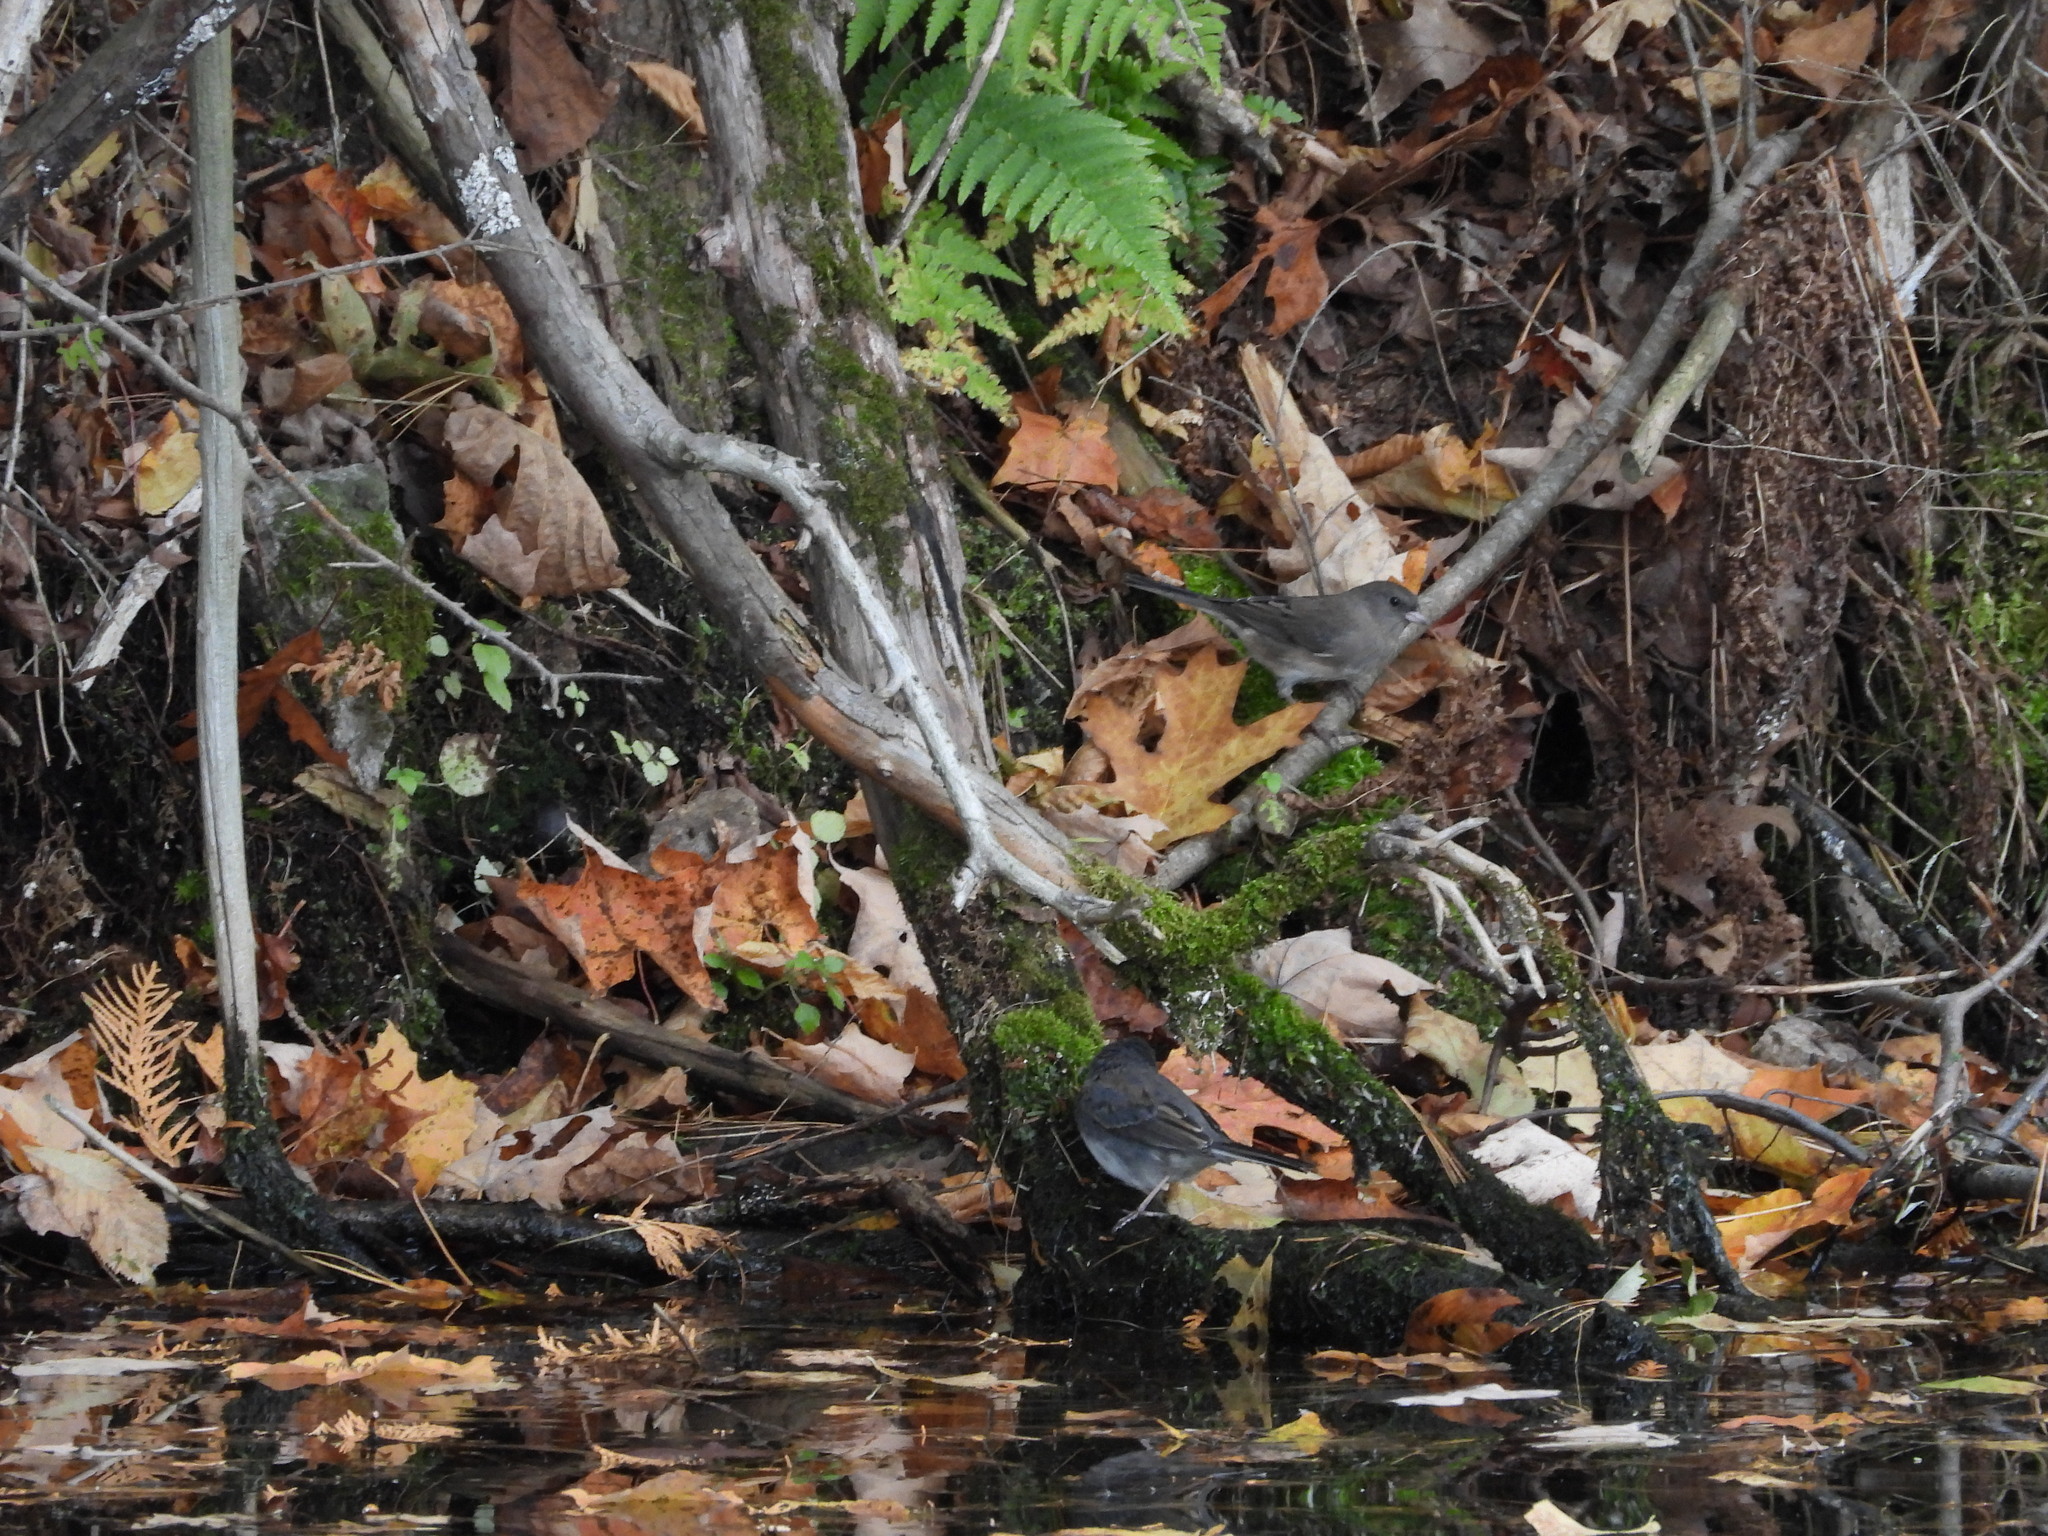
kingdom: Animalia
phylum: Chordata
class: Aves
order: Passeriformes
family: Passerellidae
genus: Junco
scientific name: Junco hyemalis
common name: Dark-eyed junco
